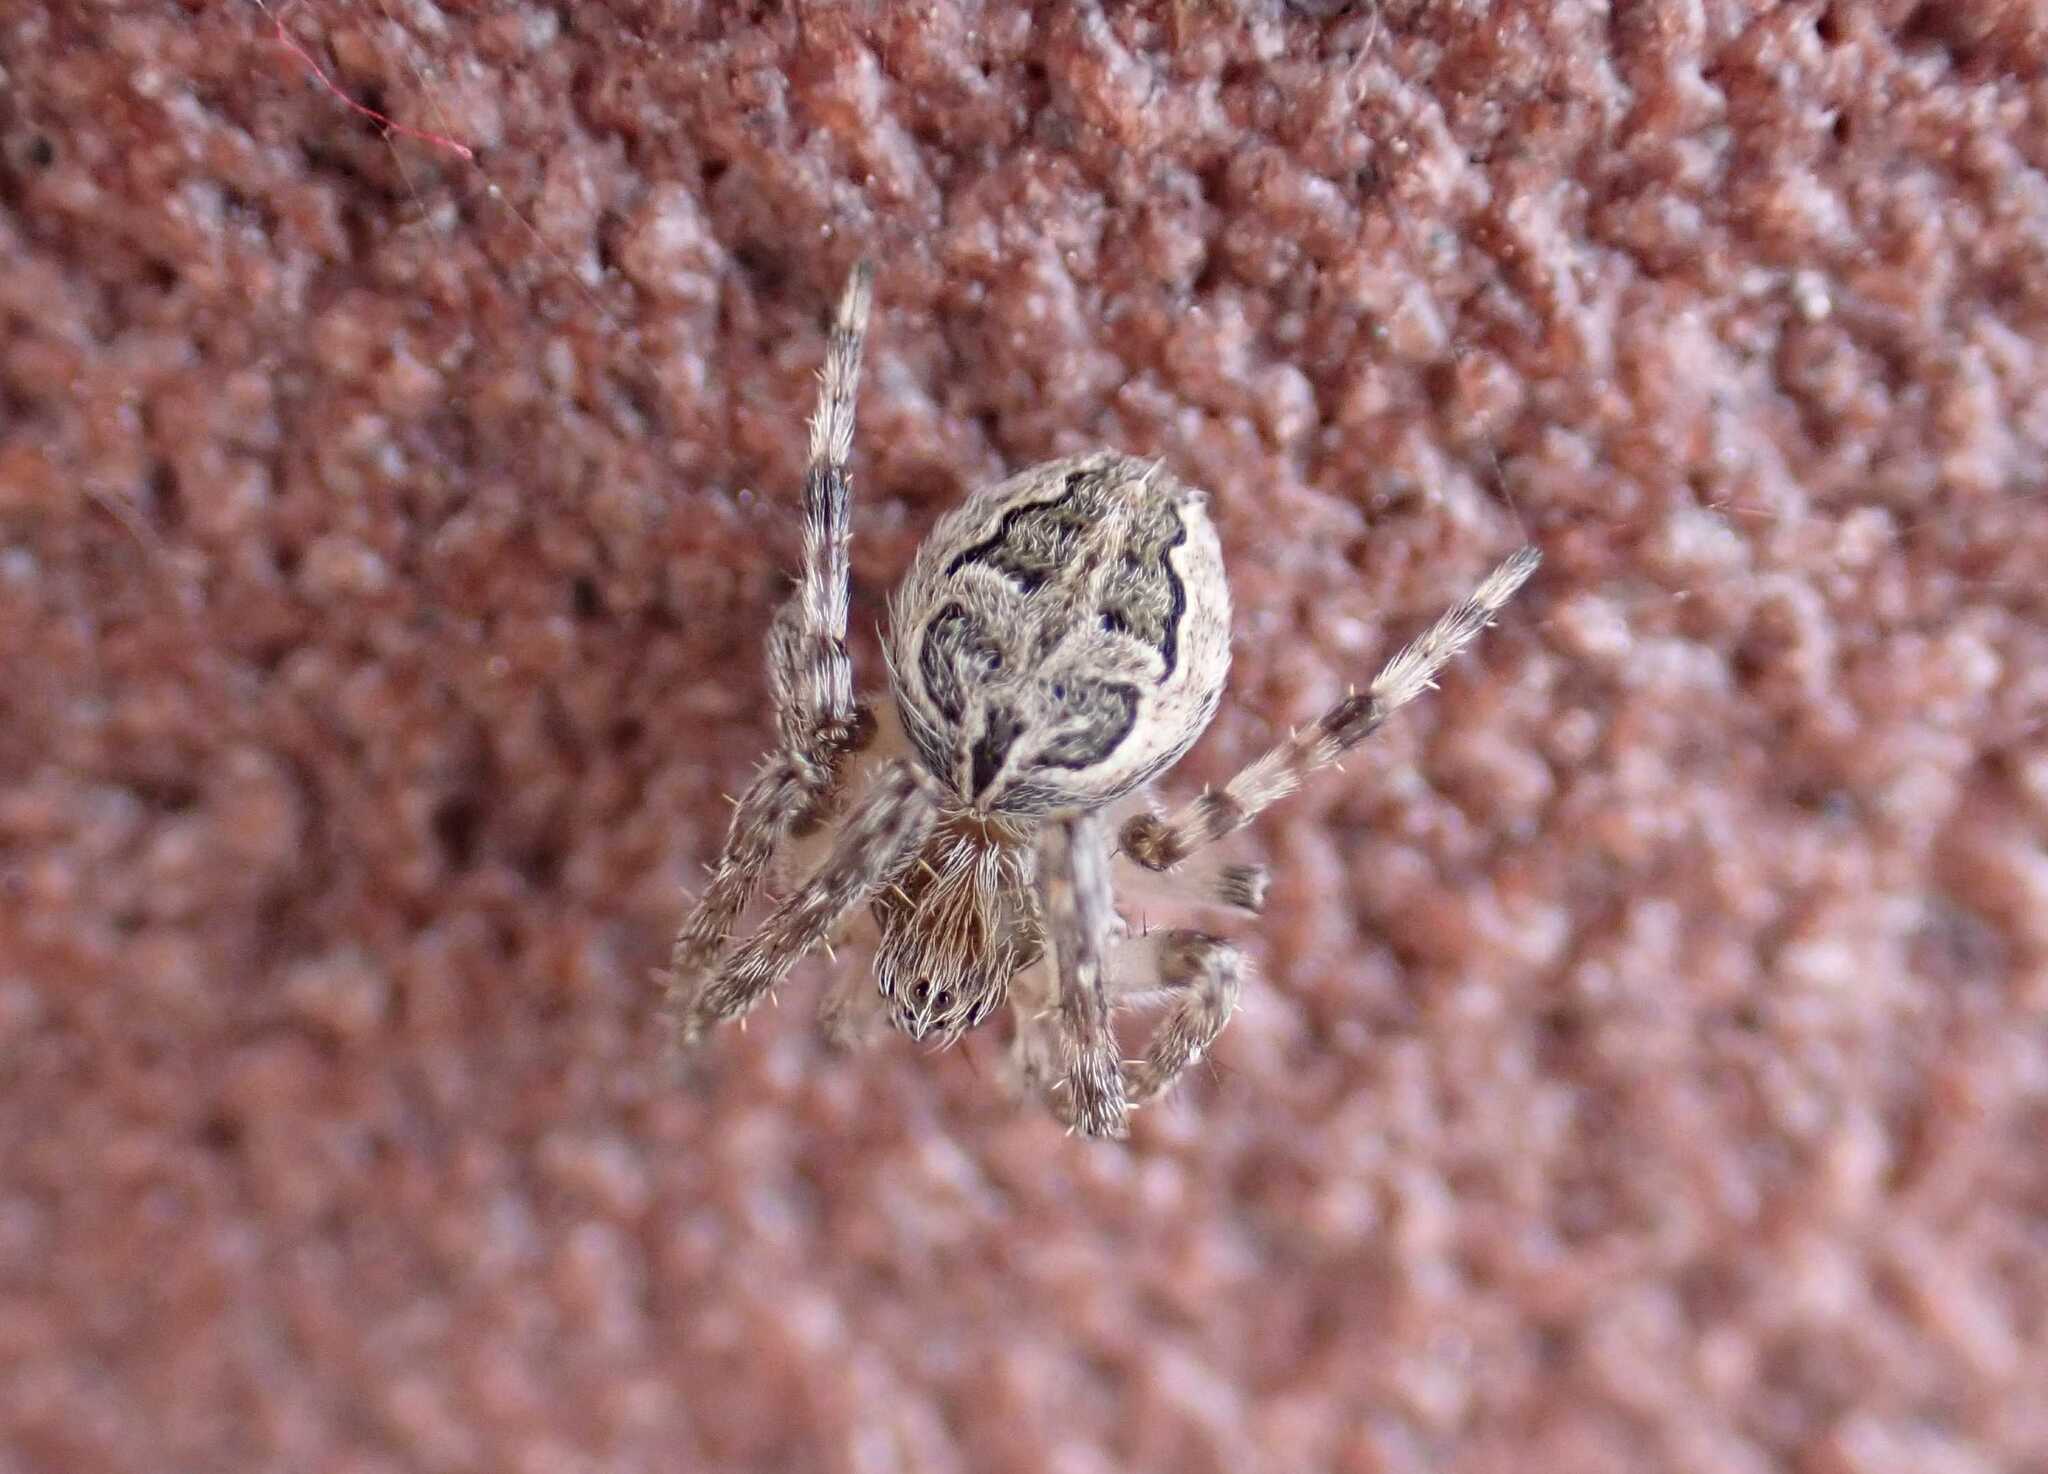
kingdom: Animalia
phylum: Arthropoda
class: Arachnida
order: Araneae
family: Araneidae
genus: Larinioides
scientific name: Larinioides sclopetarius
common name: Bridge orbweaver
